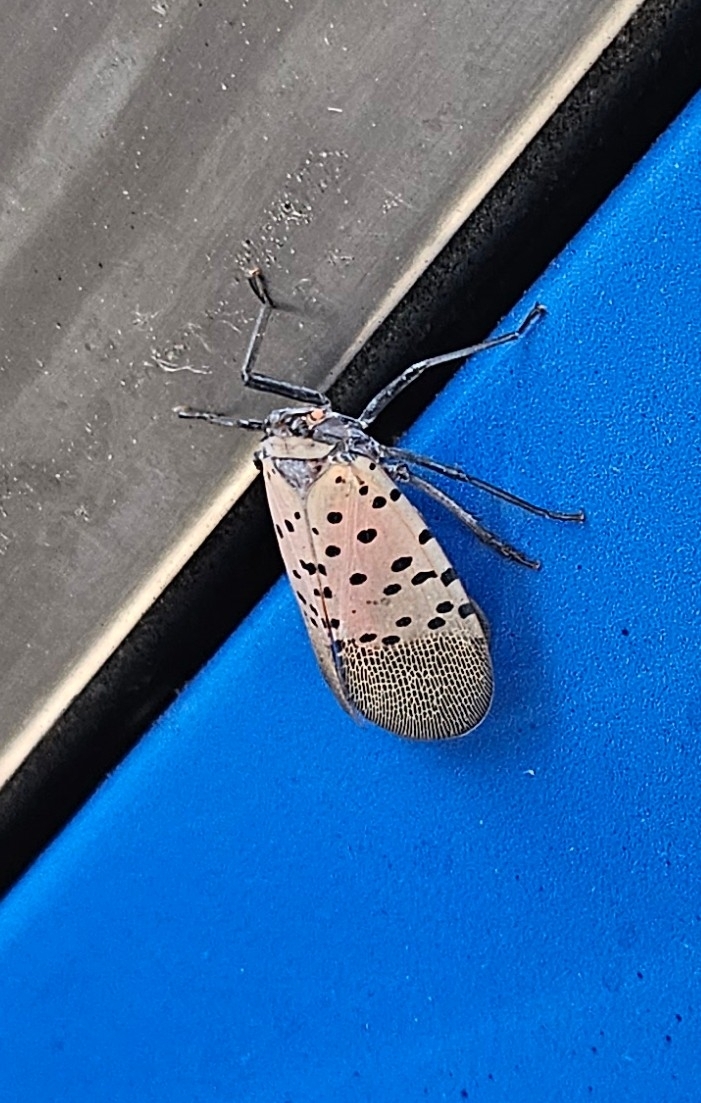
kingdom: Animalia
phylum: Arthropoda
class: Insecta
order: Hemiptera
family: Fulgoridae
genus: Lycorma
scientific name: Lycorma delicatula
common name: Spotted lanternfly
